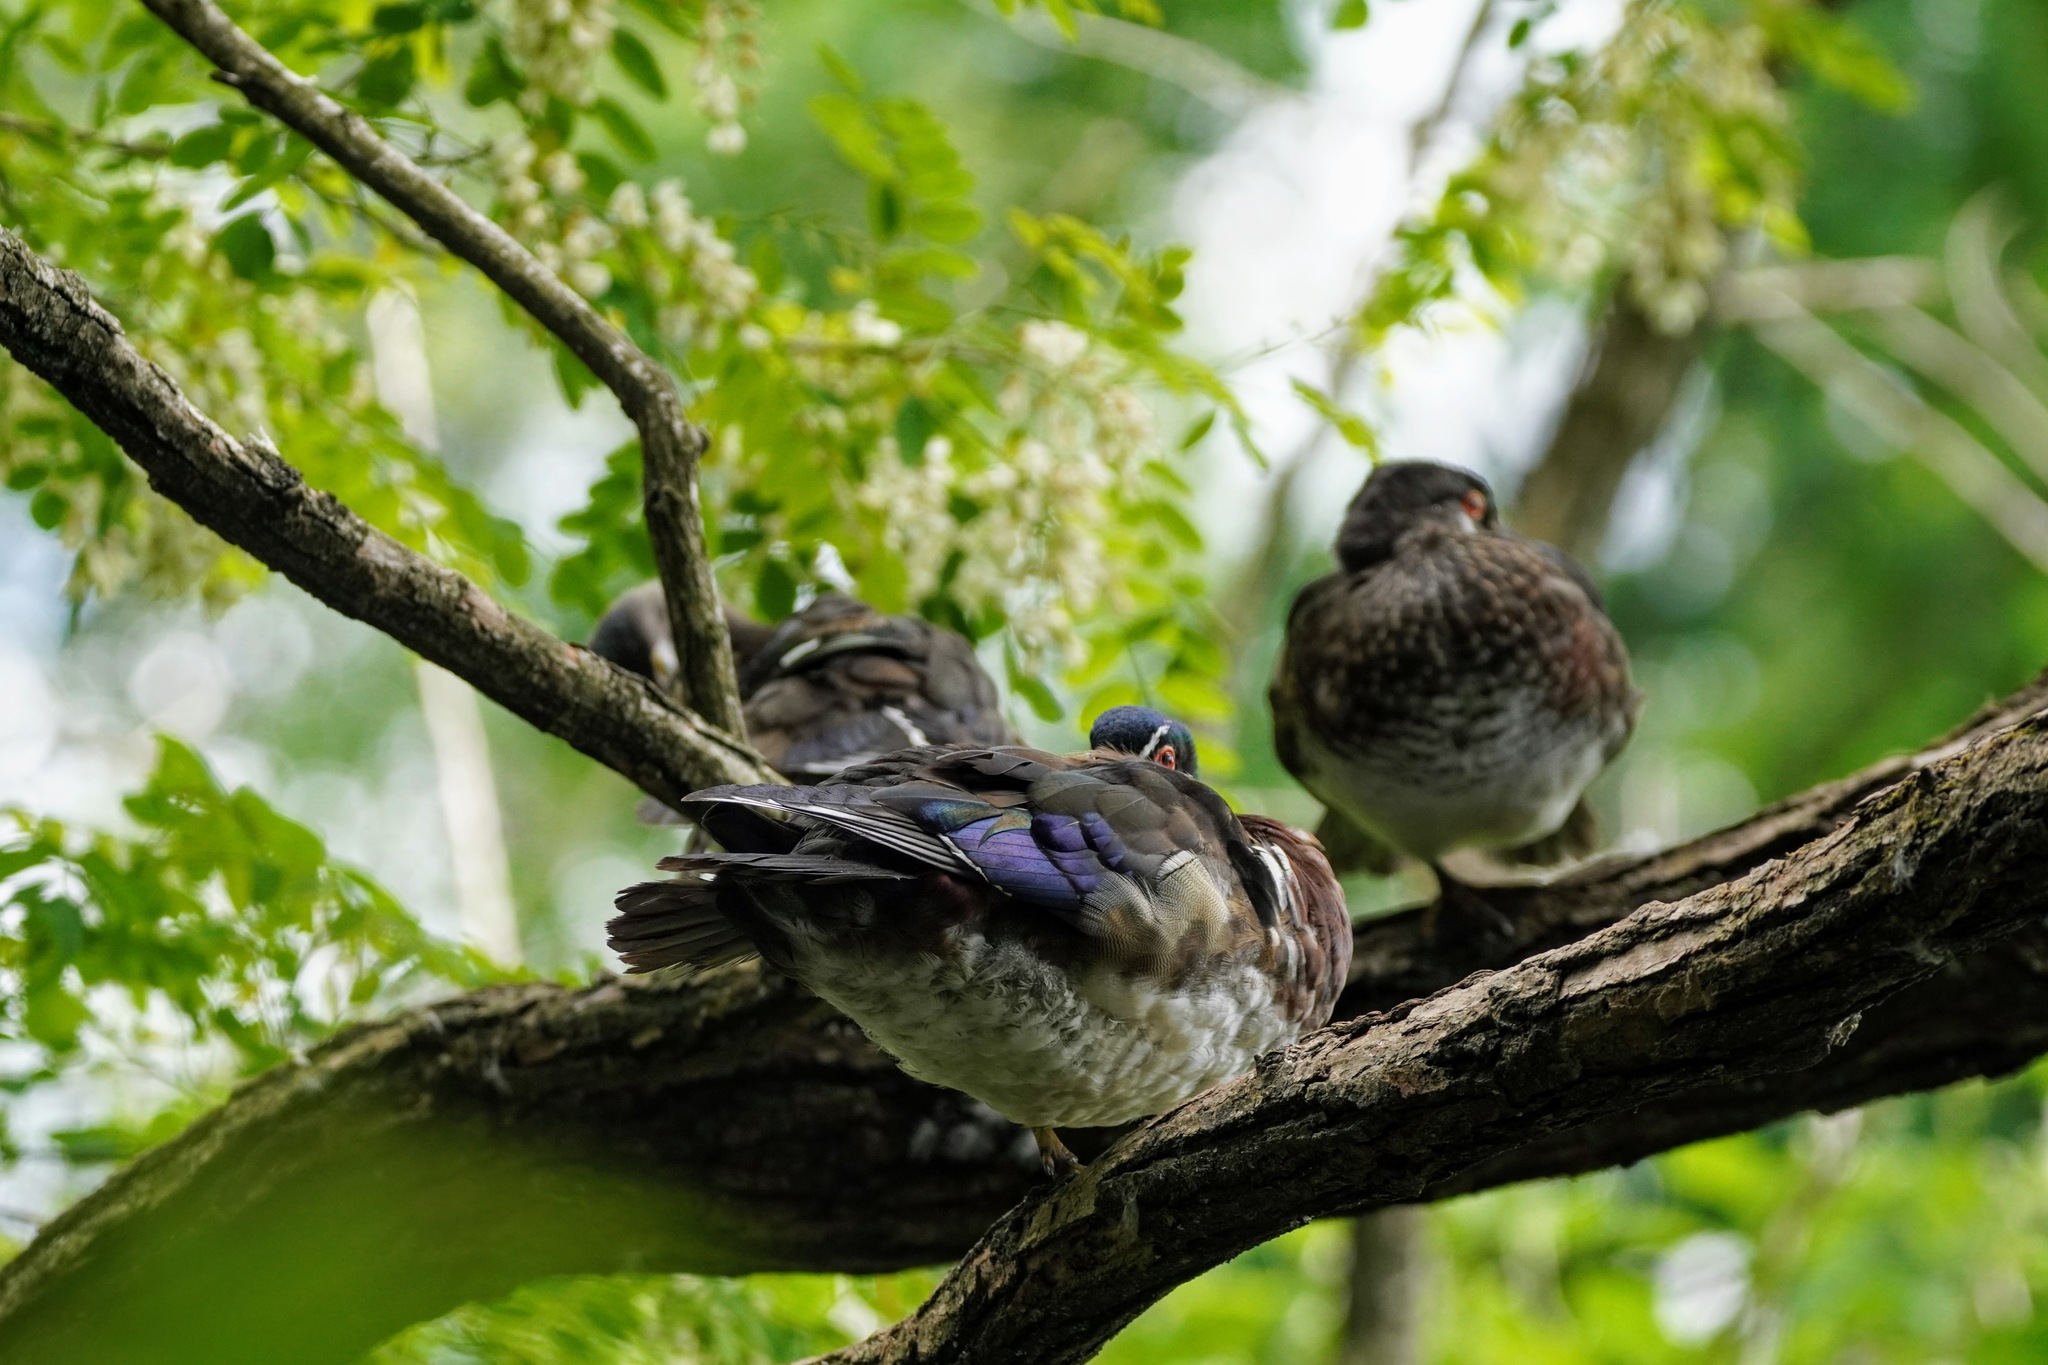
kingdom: Animalia
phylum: Chordata
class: Aves
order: Anseriformes
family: Anatidae
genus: Aix
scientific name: Aix sponsa
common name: Wood duck
